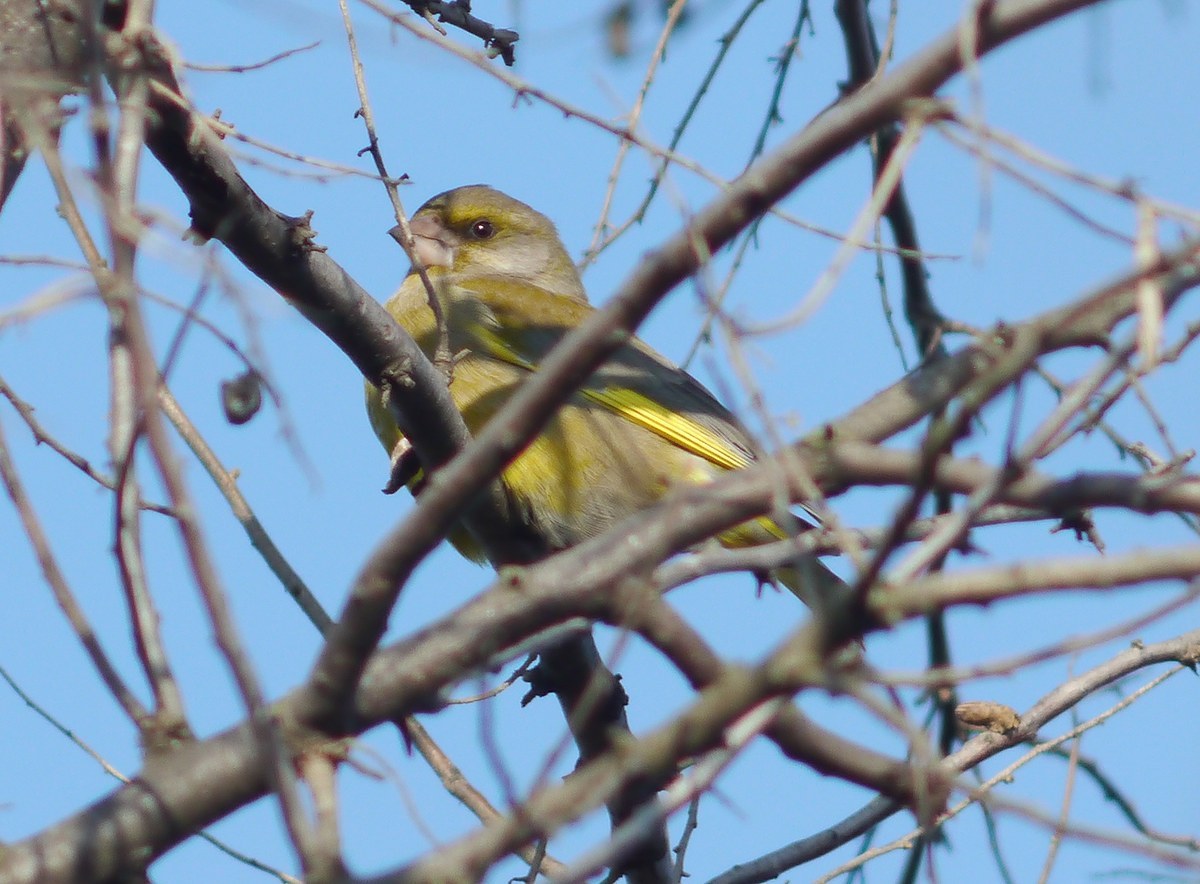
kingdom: Plantae
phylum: Tracheophyta
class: Liliopsida
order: Poales
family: Poaceae
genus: Chloris
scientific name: Chloris chloris
